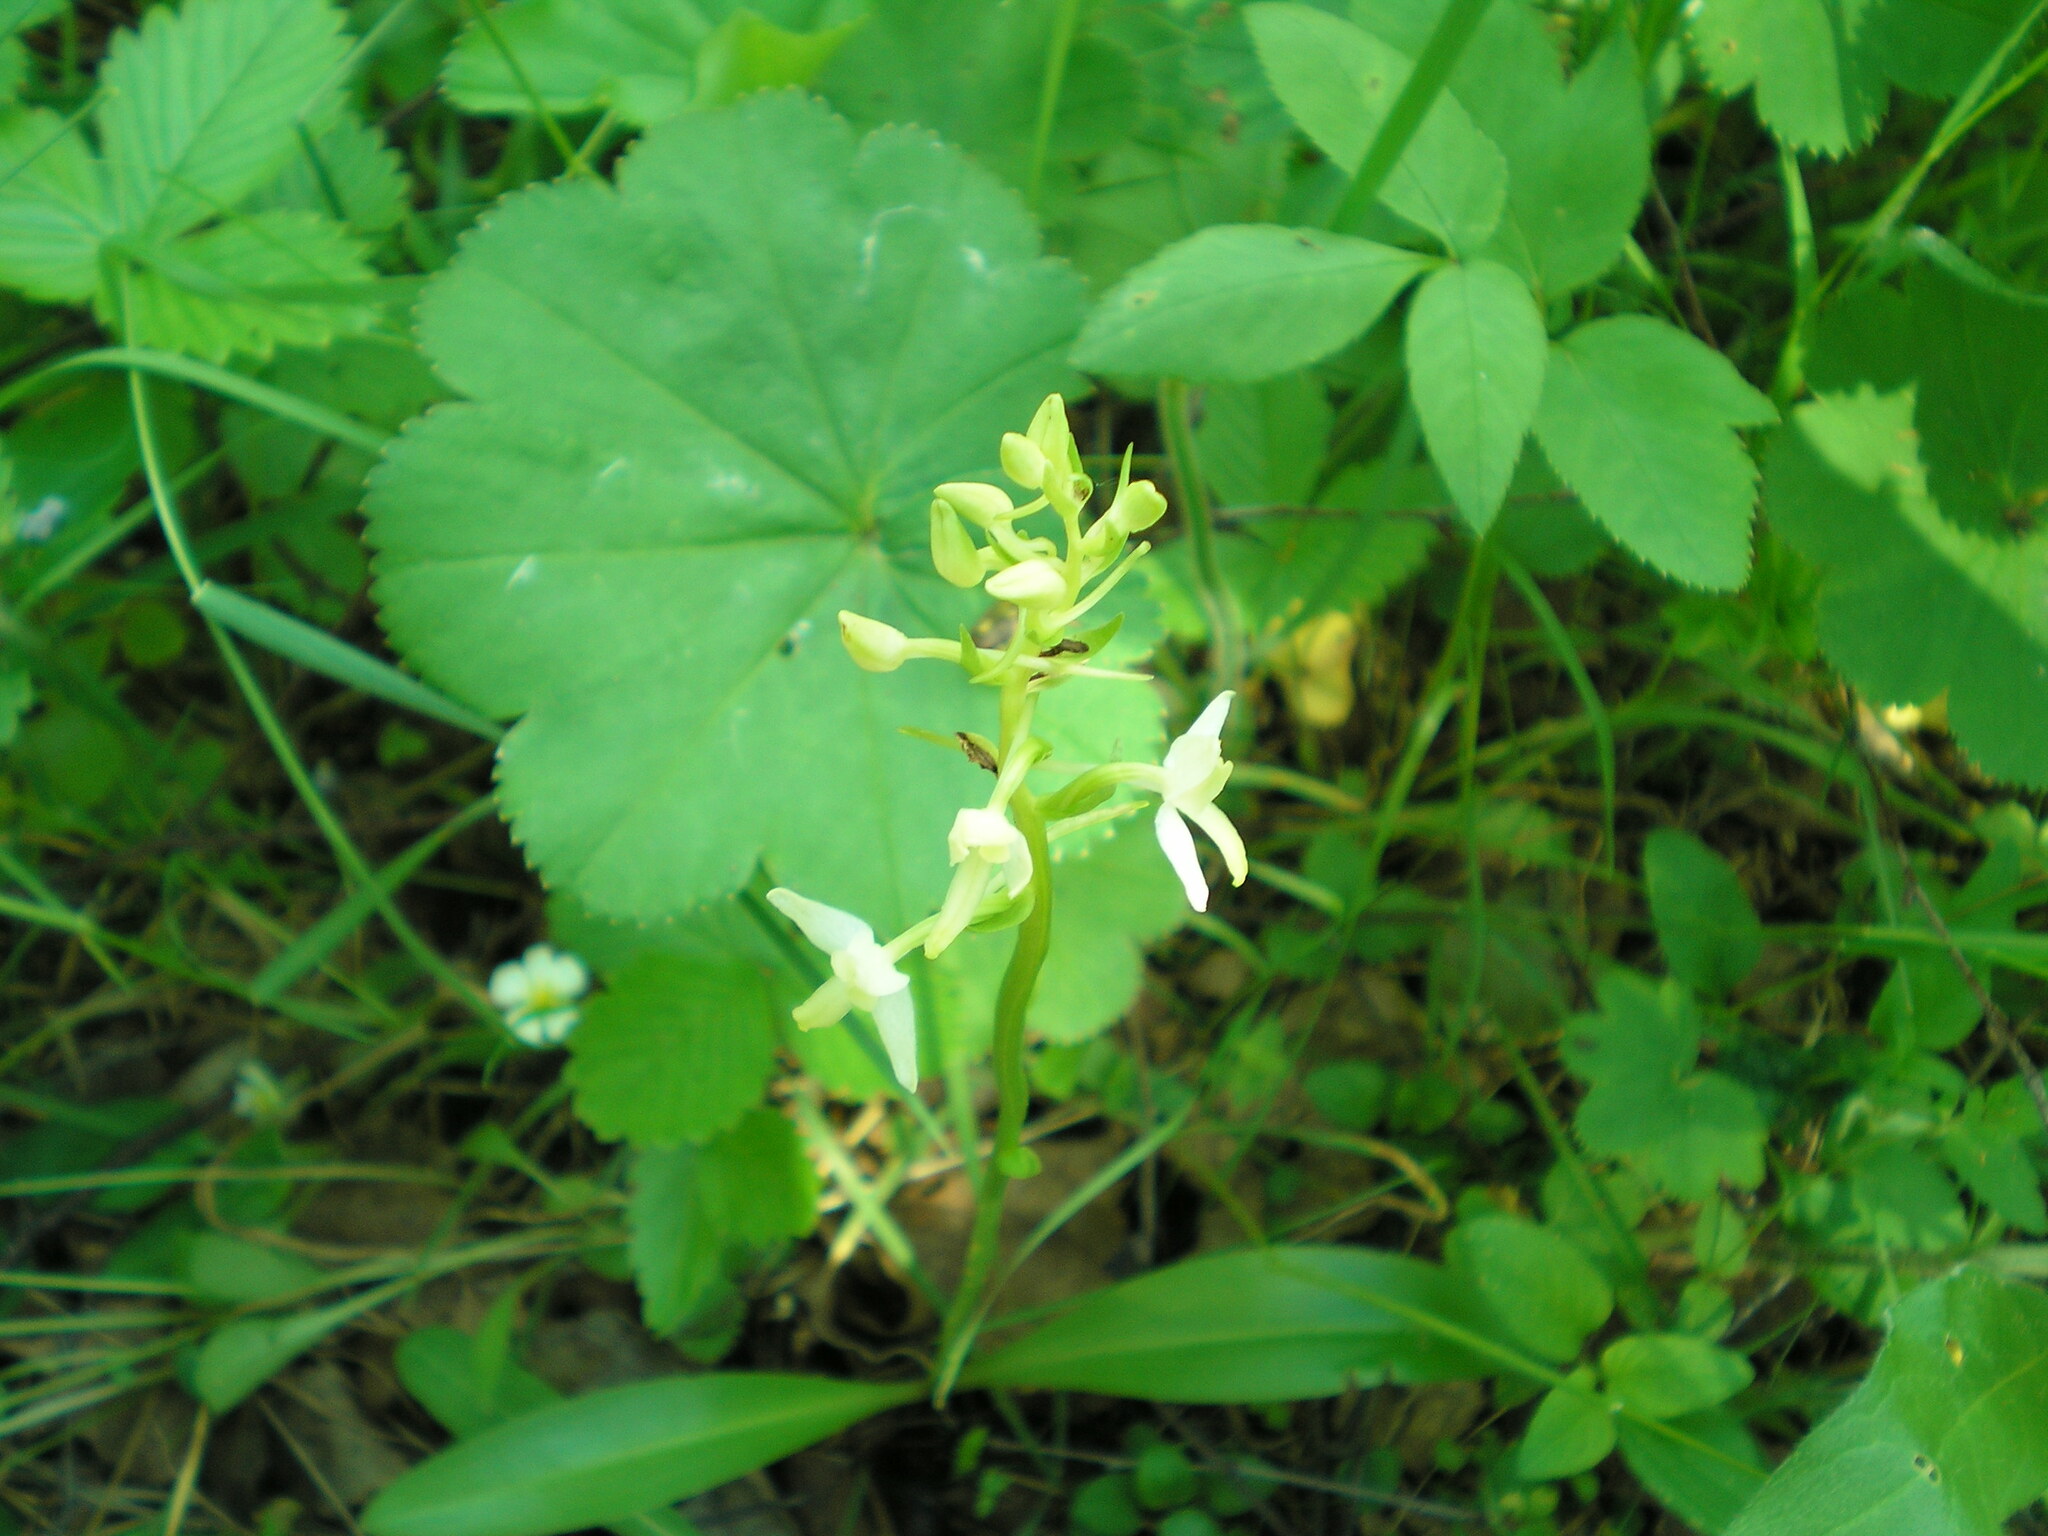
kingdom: Plantae
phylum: Tracheophyta
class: Liliopsida
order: Asparagales
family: Orchidaceae
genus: Platanthera
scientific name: Platanthera bifolia
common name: Lesser butterfly-orchid
